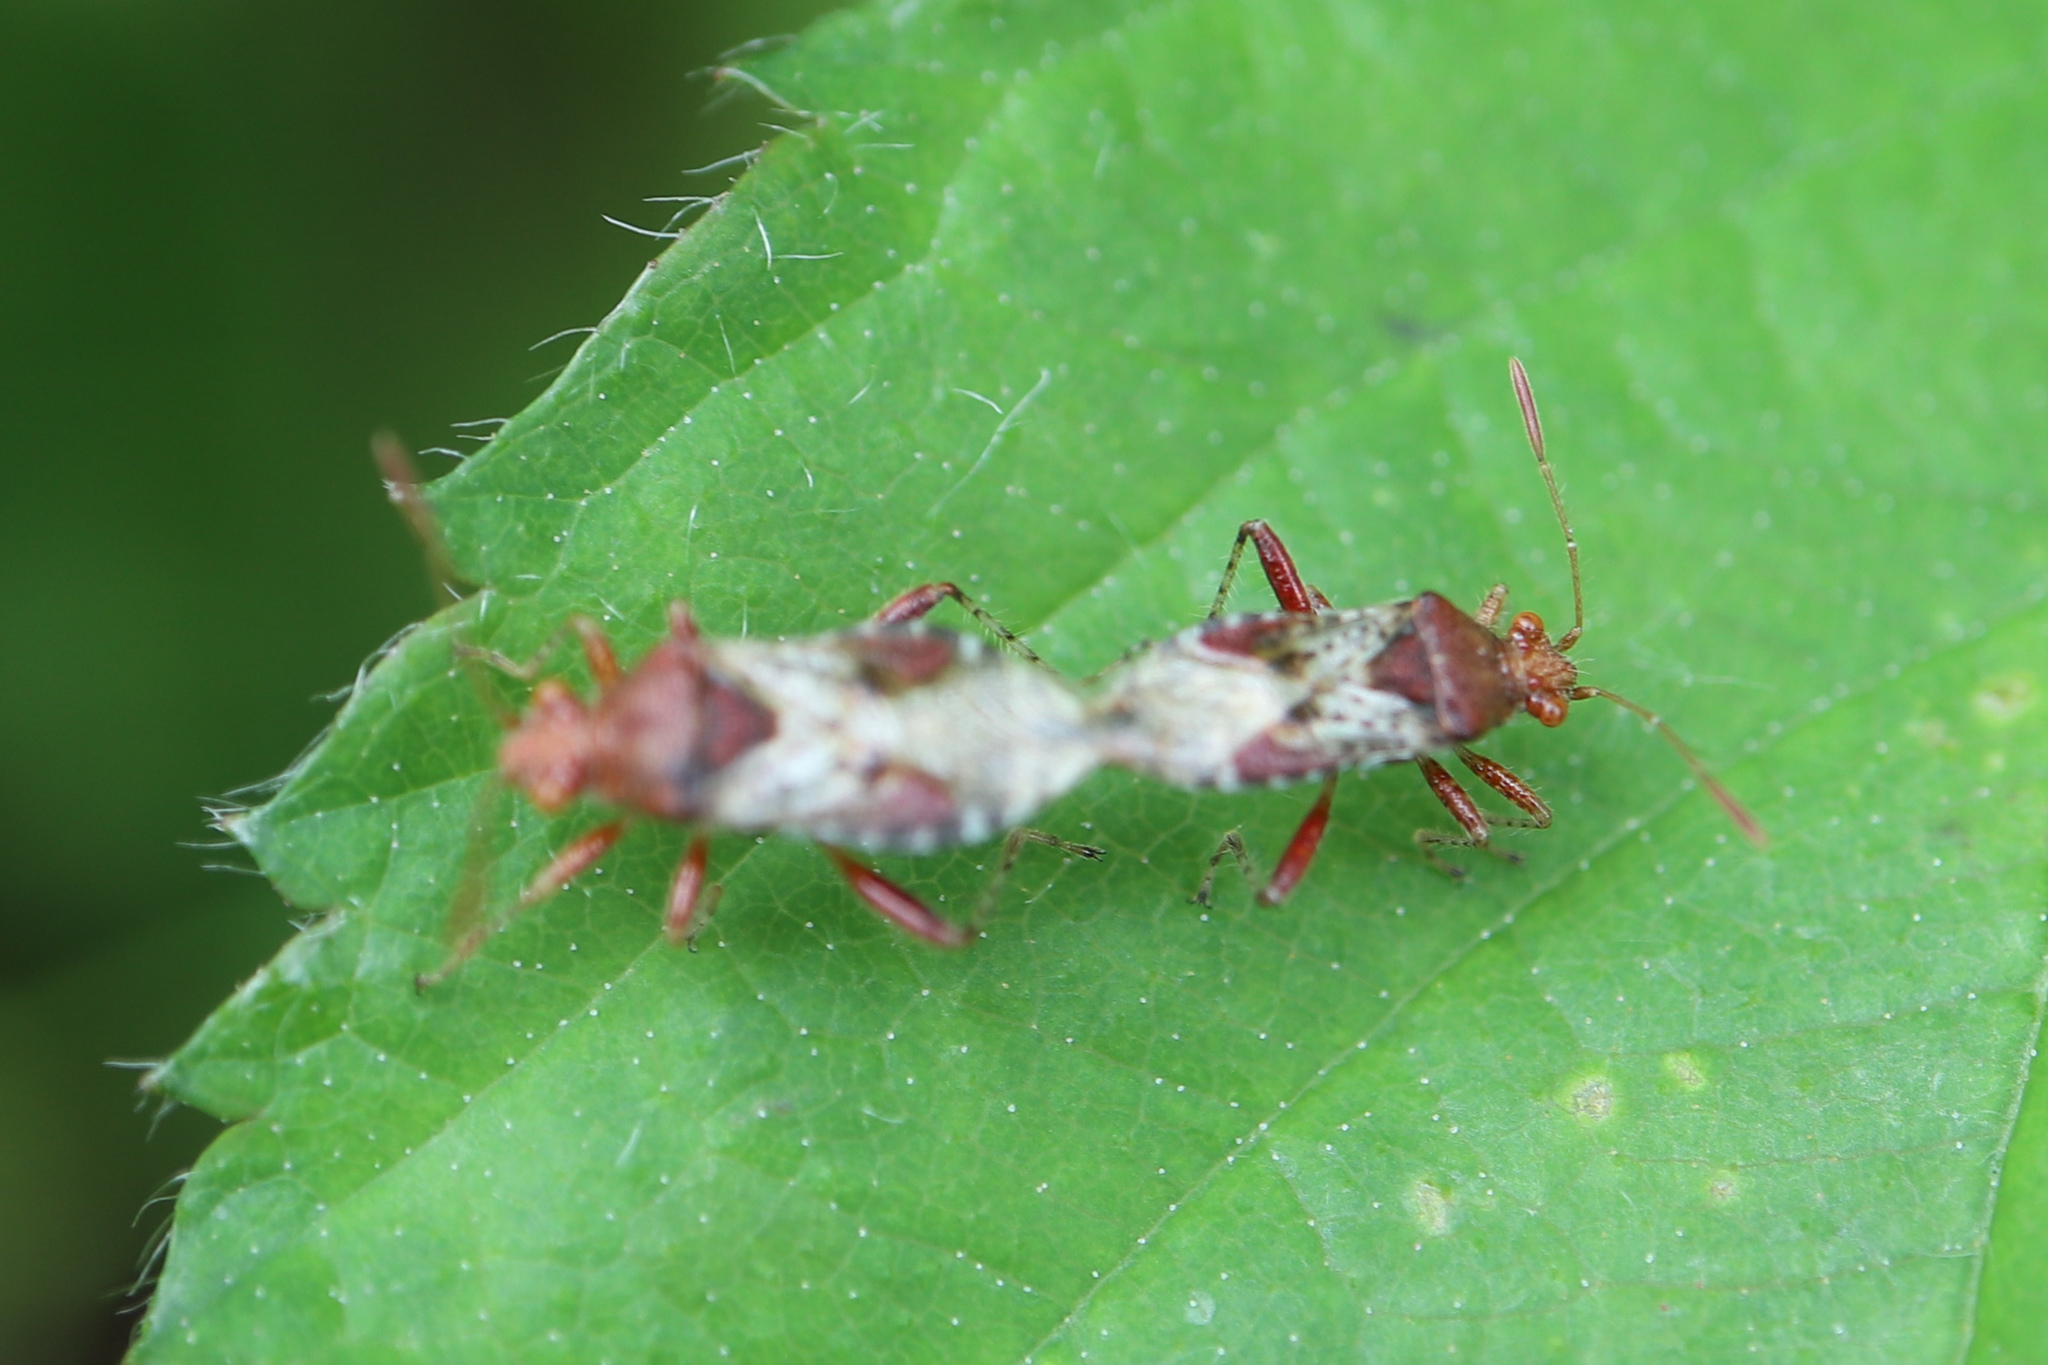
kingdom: Animalia
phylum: Arthropoda
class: Insecta
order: Hemiptera
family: Rhopalidae
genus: Rhopalus
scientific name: Rhopalus subrufus
